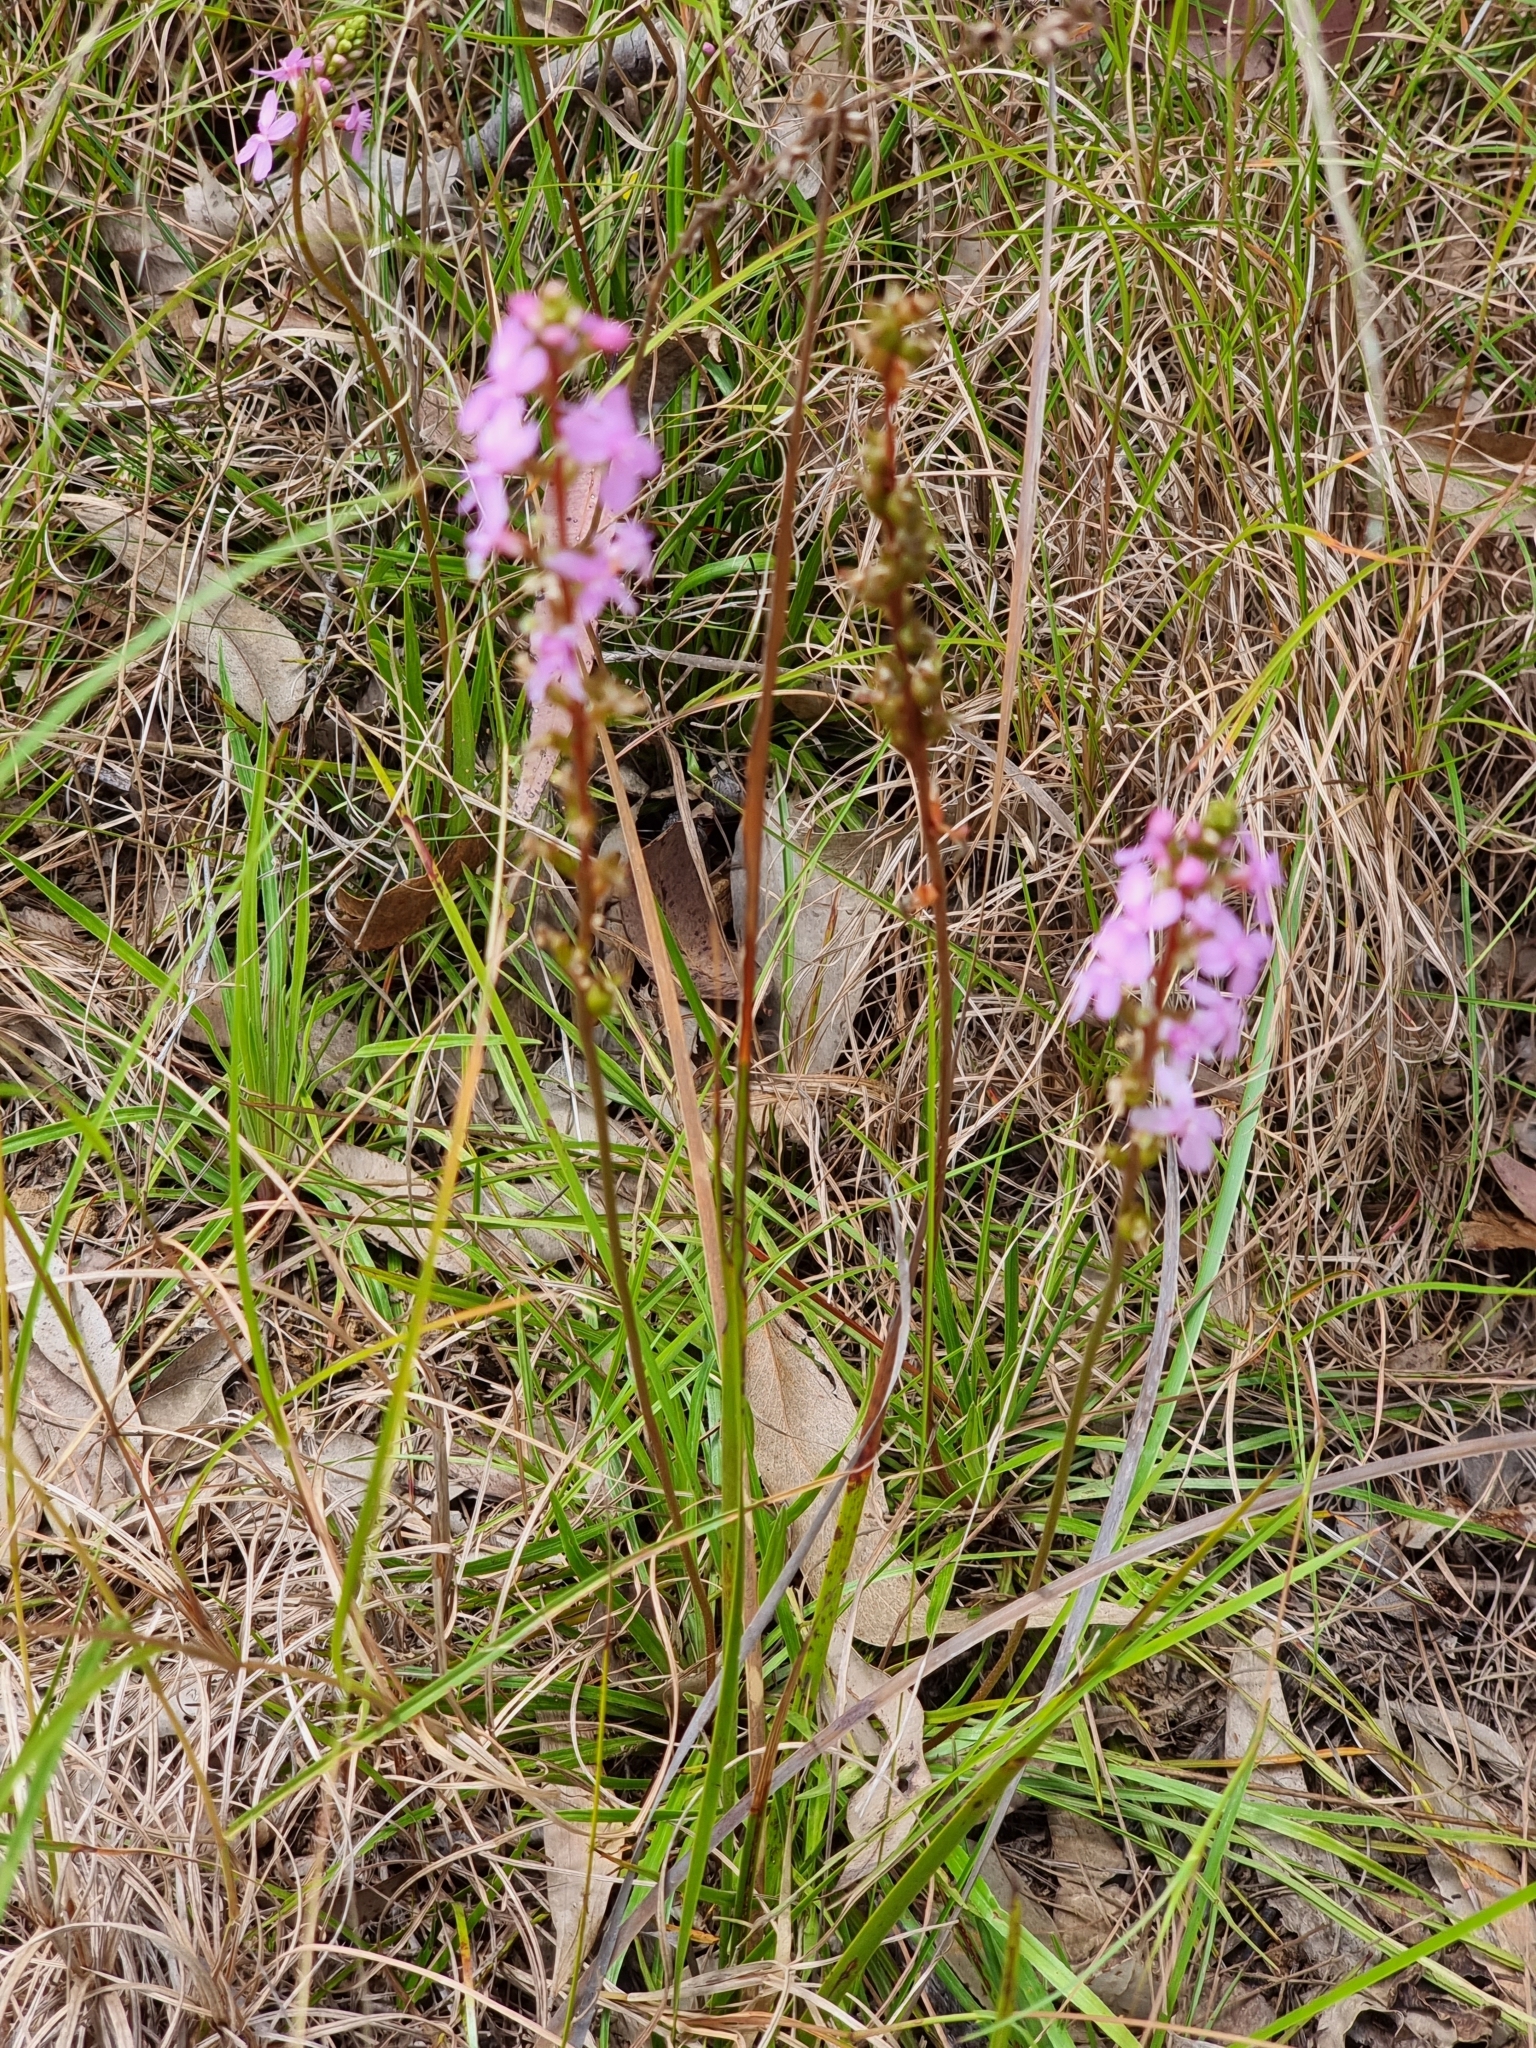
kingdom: Plantae
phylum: Tracheophyta
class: Magnoliopsida
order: Asterales
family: Stylidiaceae
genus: Stylidium
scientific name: Stylidium graminifolium
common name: Grass triggerplant
